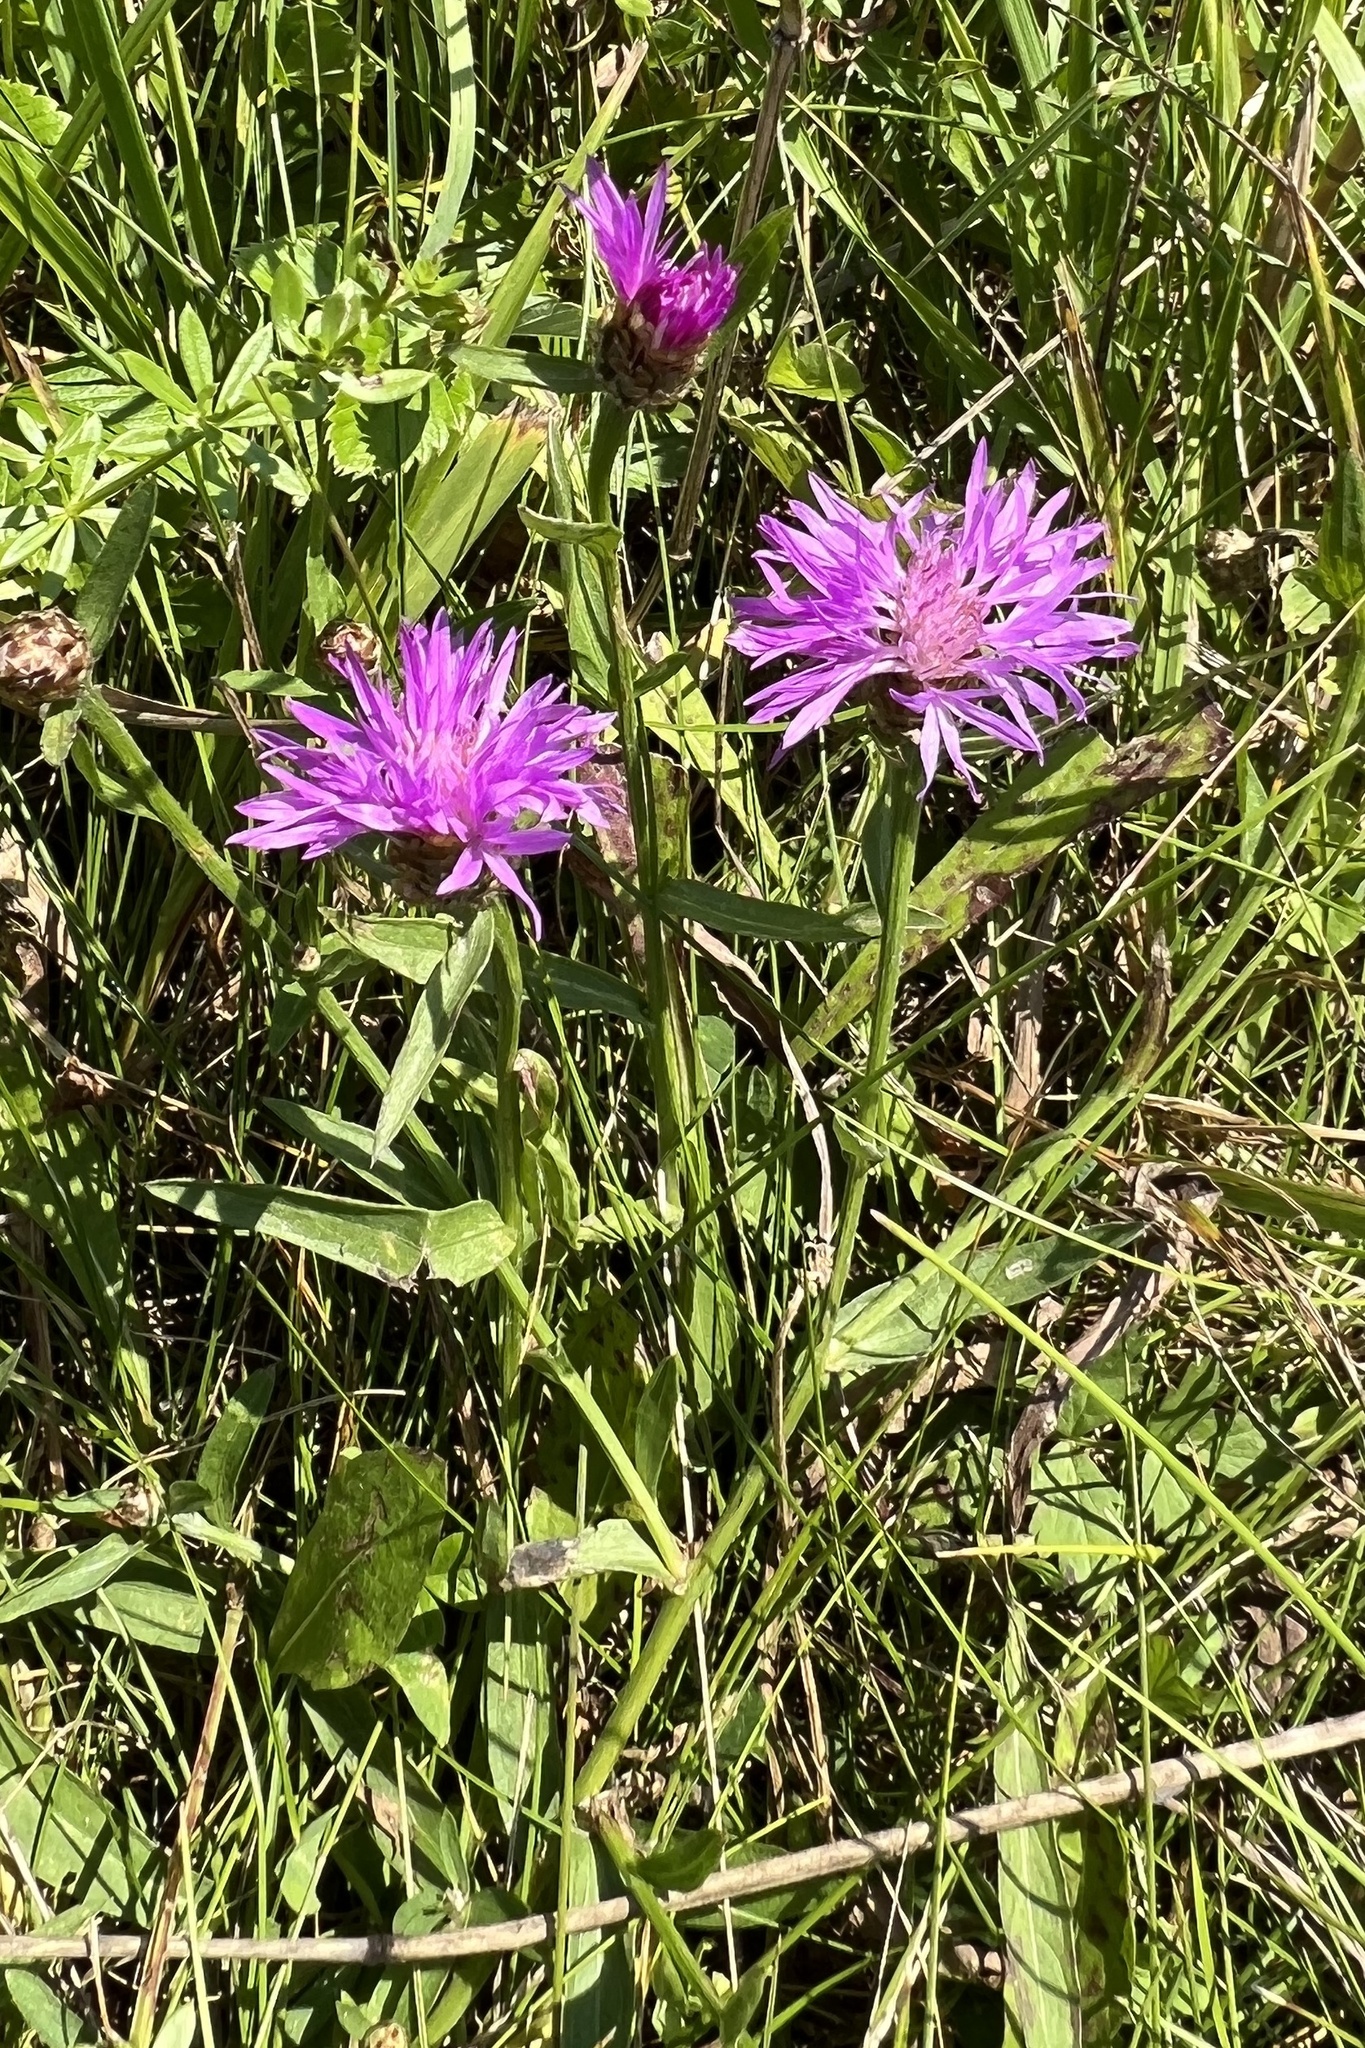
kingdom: Plantae
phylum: Tracheophyta
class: Magnoliopsida
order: Asterales
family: Asteraceae
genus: Centaurea
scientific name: Centaurea jacea
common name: Brown knapweed
